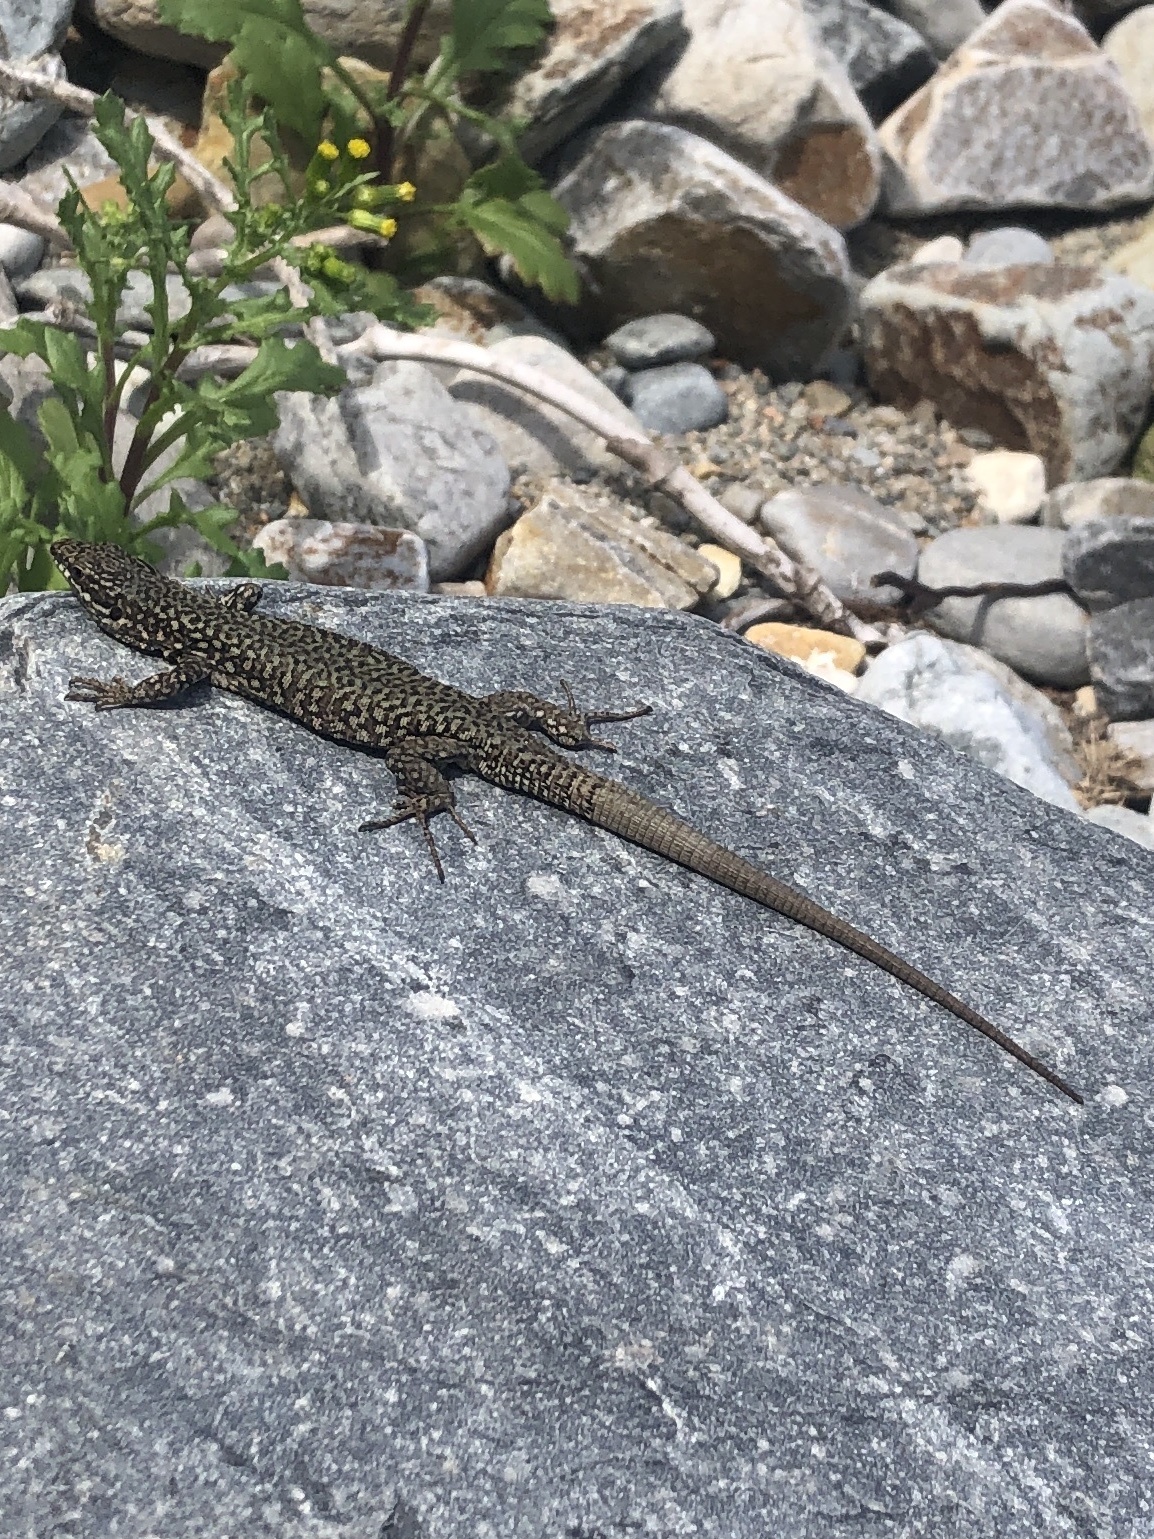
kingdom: Animalia
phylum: Chordata
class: Squamata
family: Lacertidae
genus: Podarcis
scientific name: Podarcis muralis
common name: Common wall lizard
